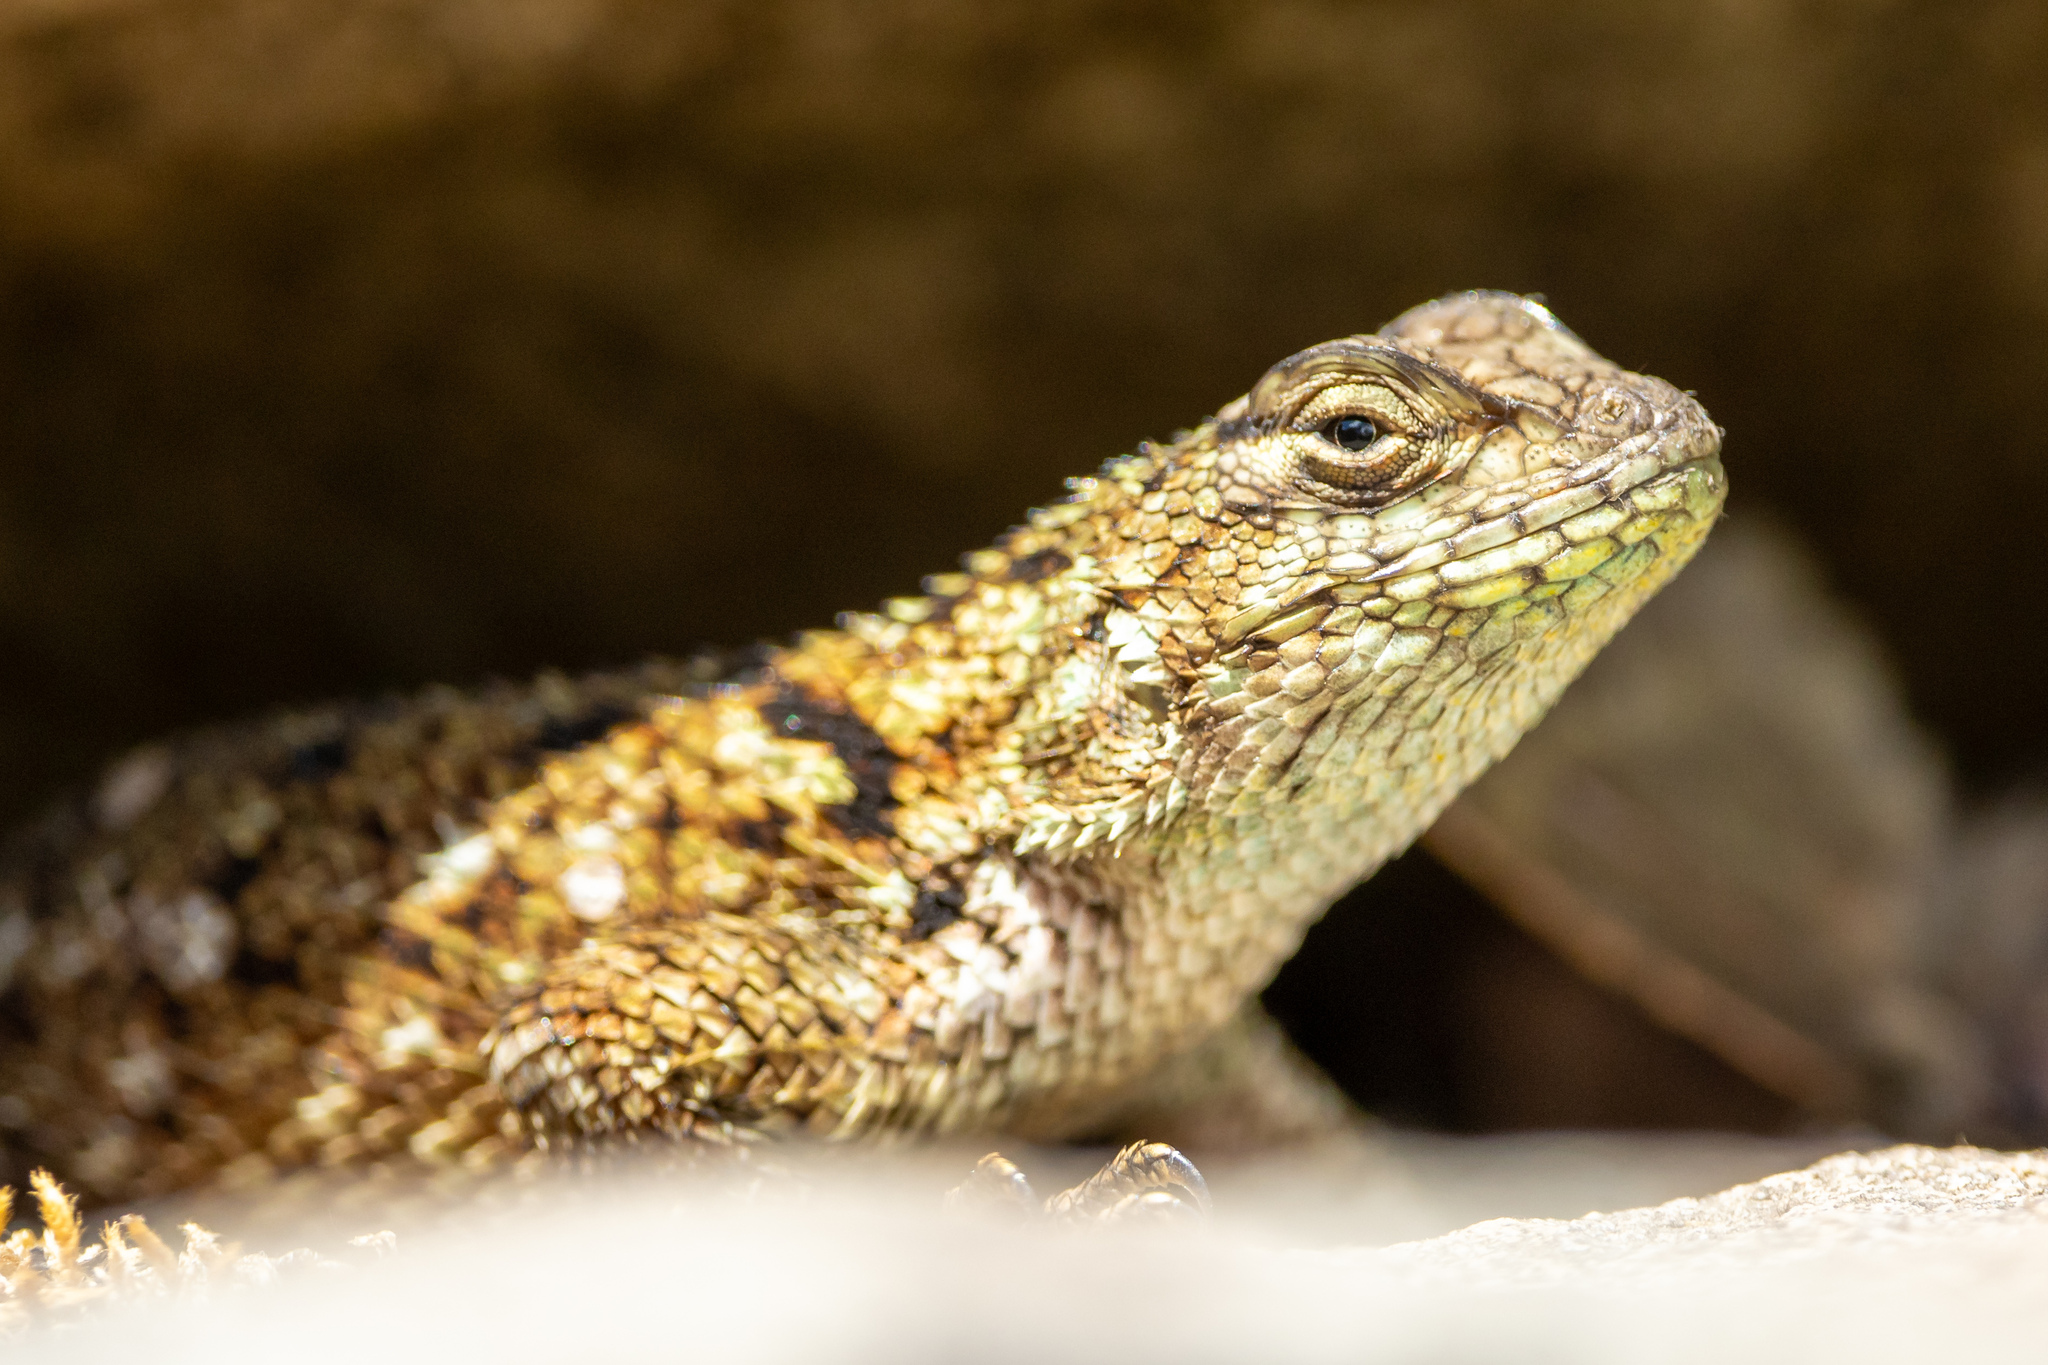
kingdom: Animalia
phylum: Chordata
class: Squamata
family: Phrynosomatidae
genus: Sceloporus
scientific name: Sceloporus malachiticus
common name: Green spiny lizard
